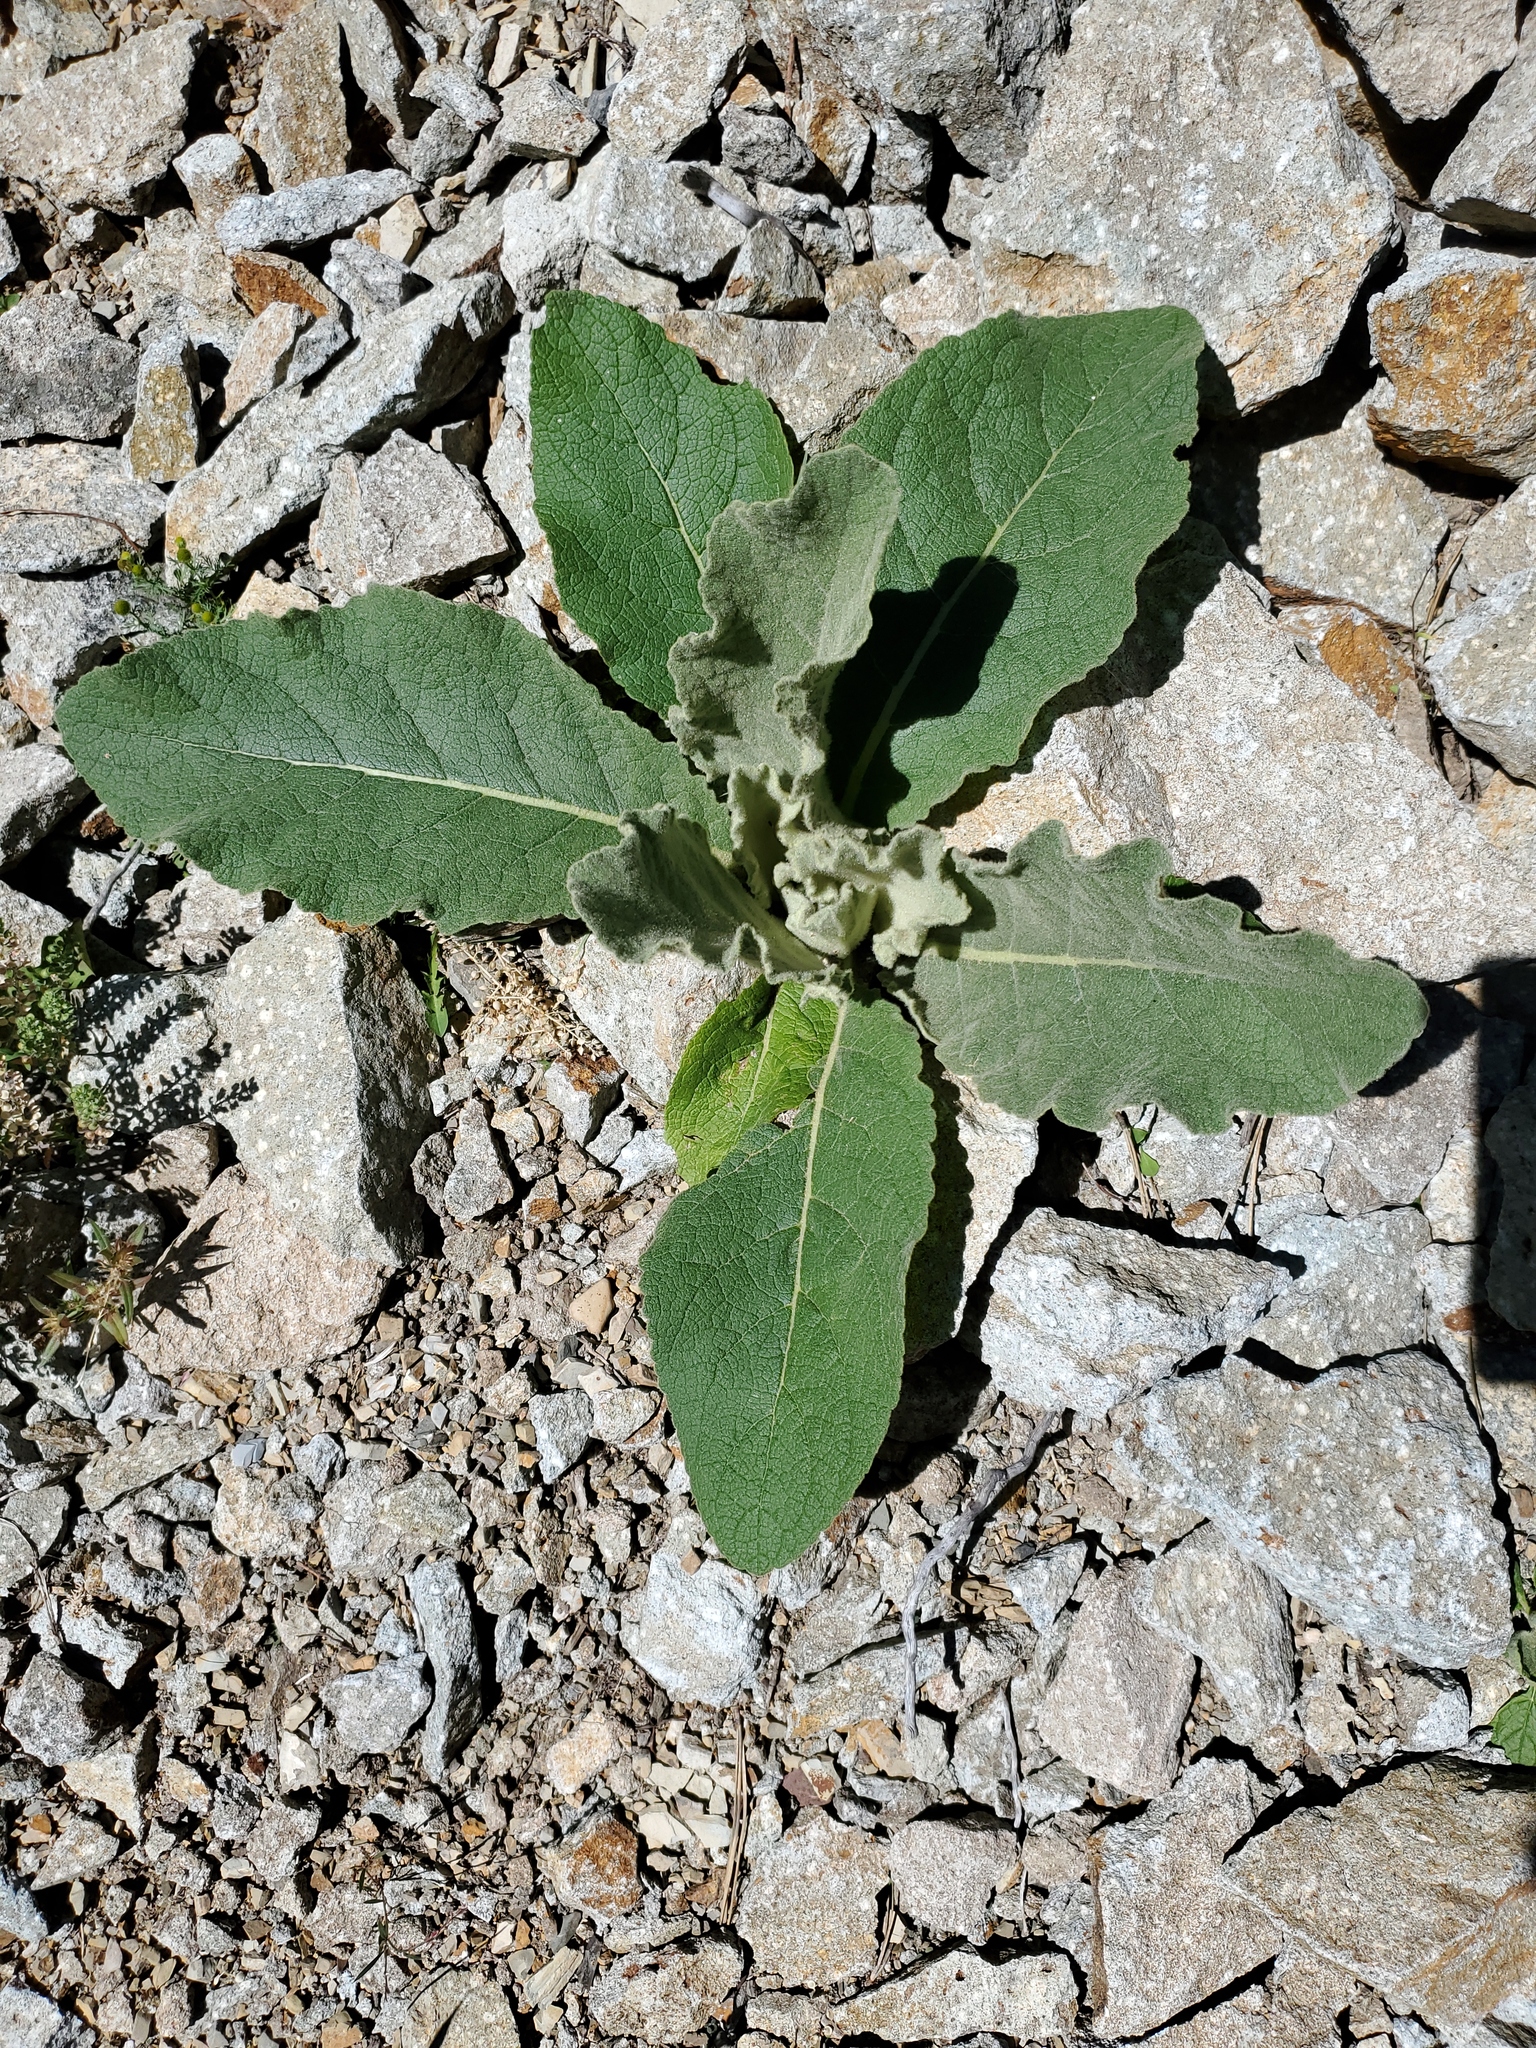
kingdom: Plantae
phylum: Tracheophyta
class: Magnoliopsida
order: Lamiales
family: Scrophulariaceae
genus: Verbascum
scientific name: Verbascum thapsus
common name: Common mullein
